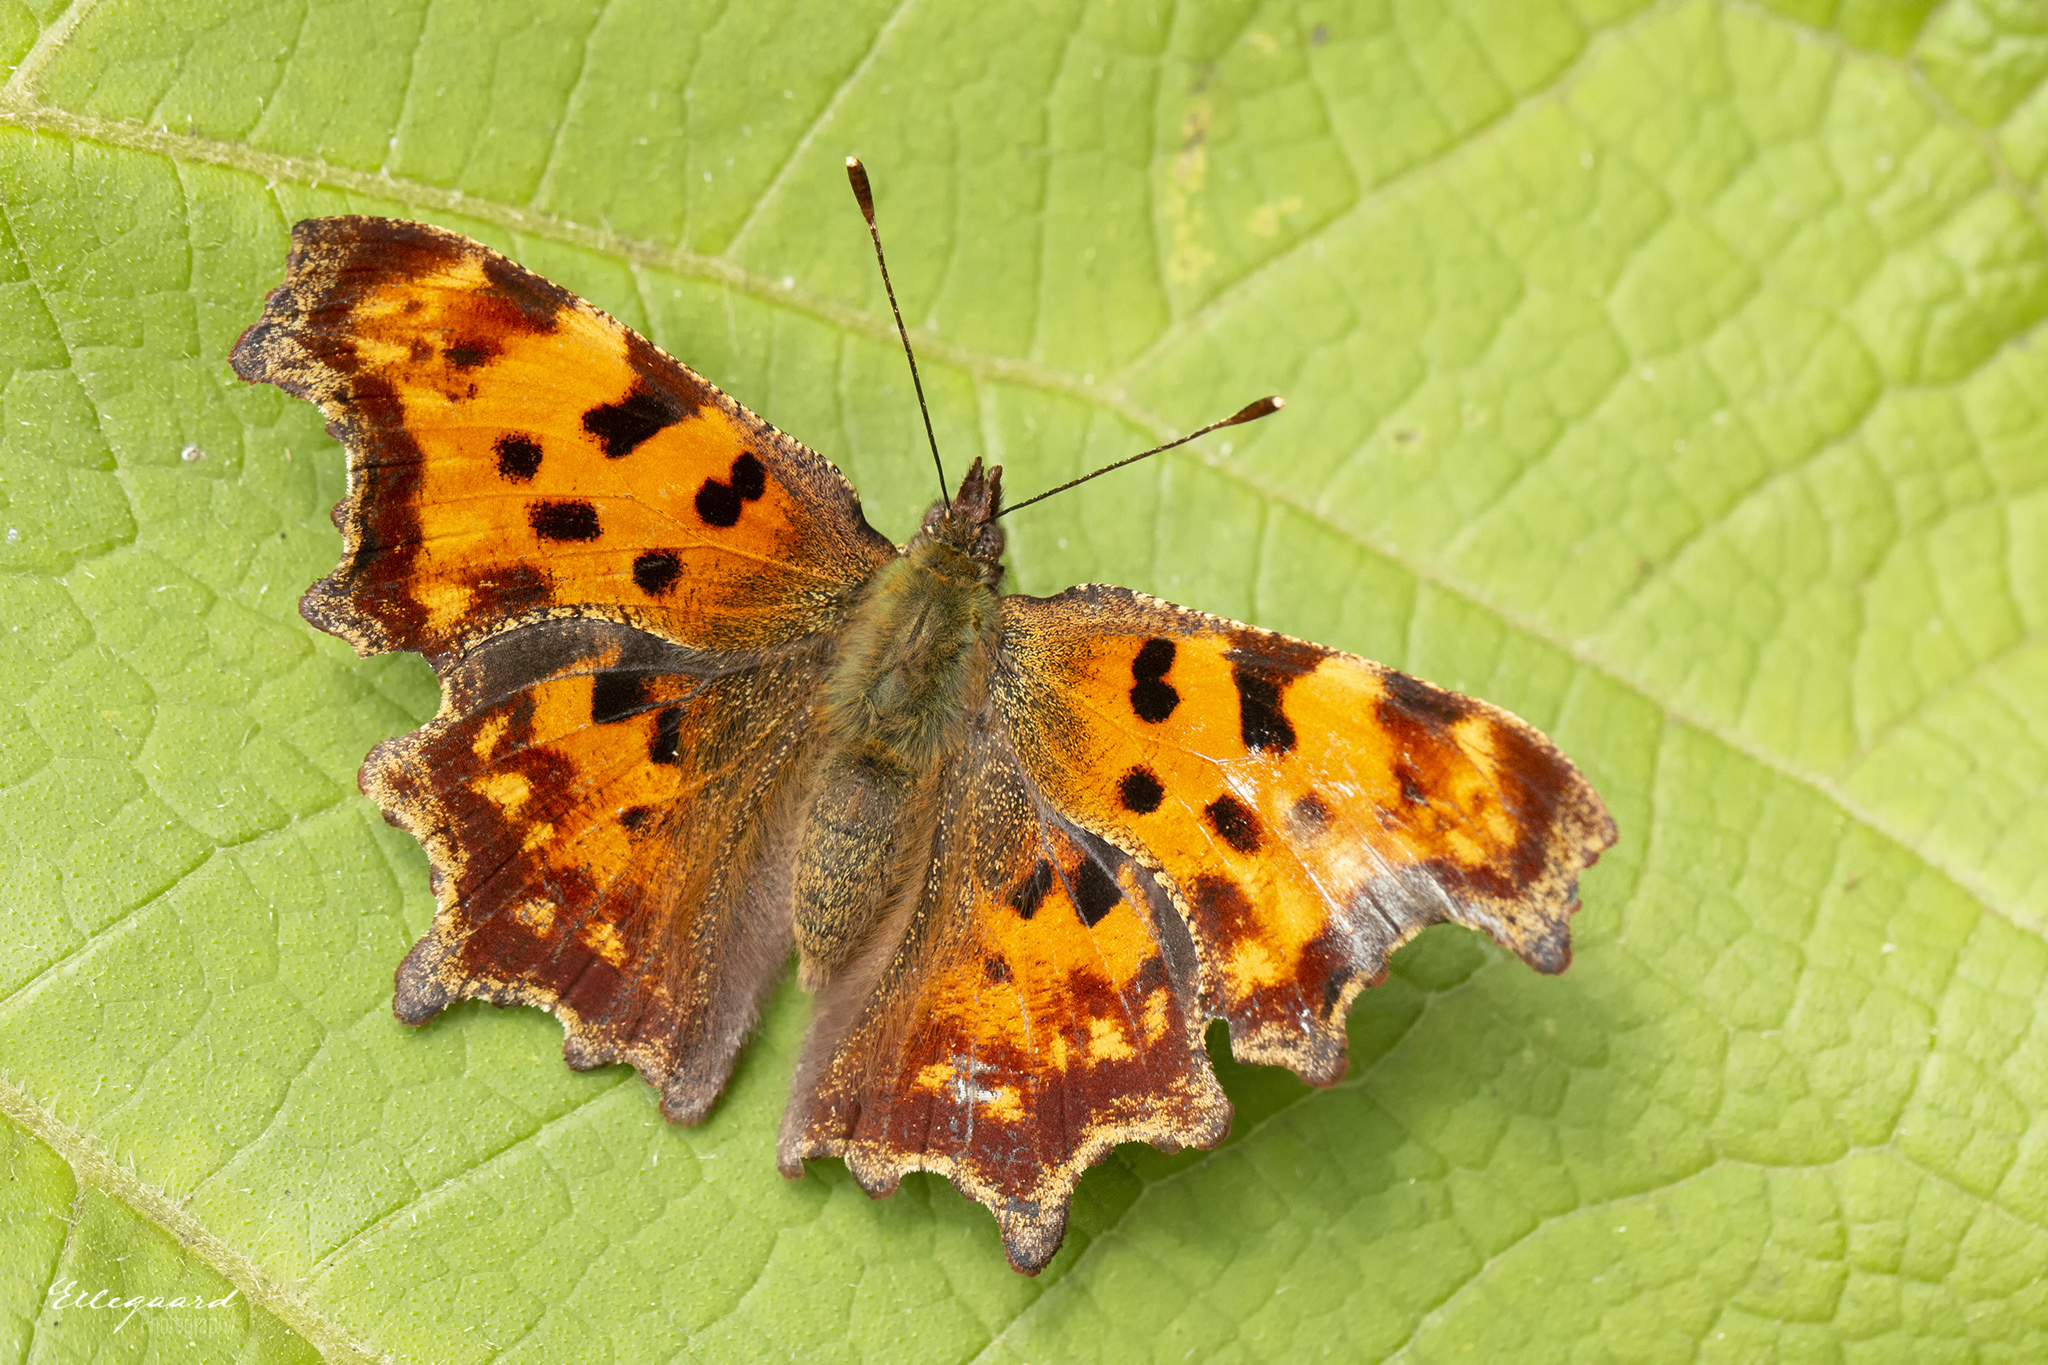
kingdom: Animalia
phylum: Arthropoda
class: Insecta
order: Lepidoptera
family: Nymphalidae
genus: Polygonia
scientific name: Polygonia c-album
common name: Comma
